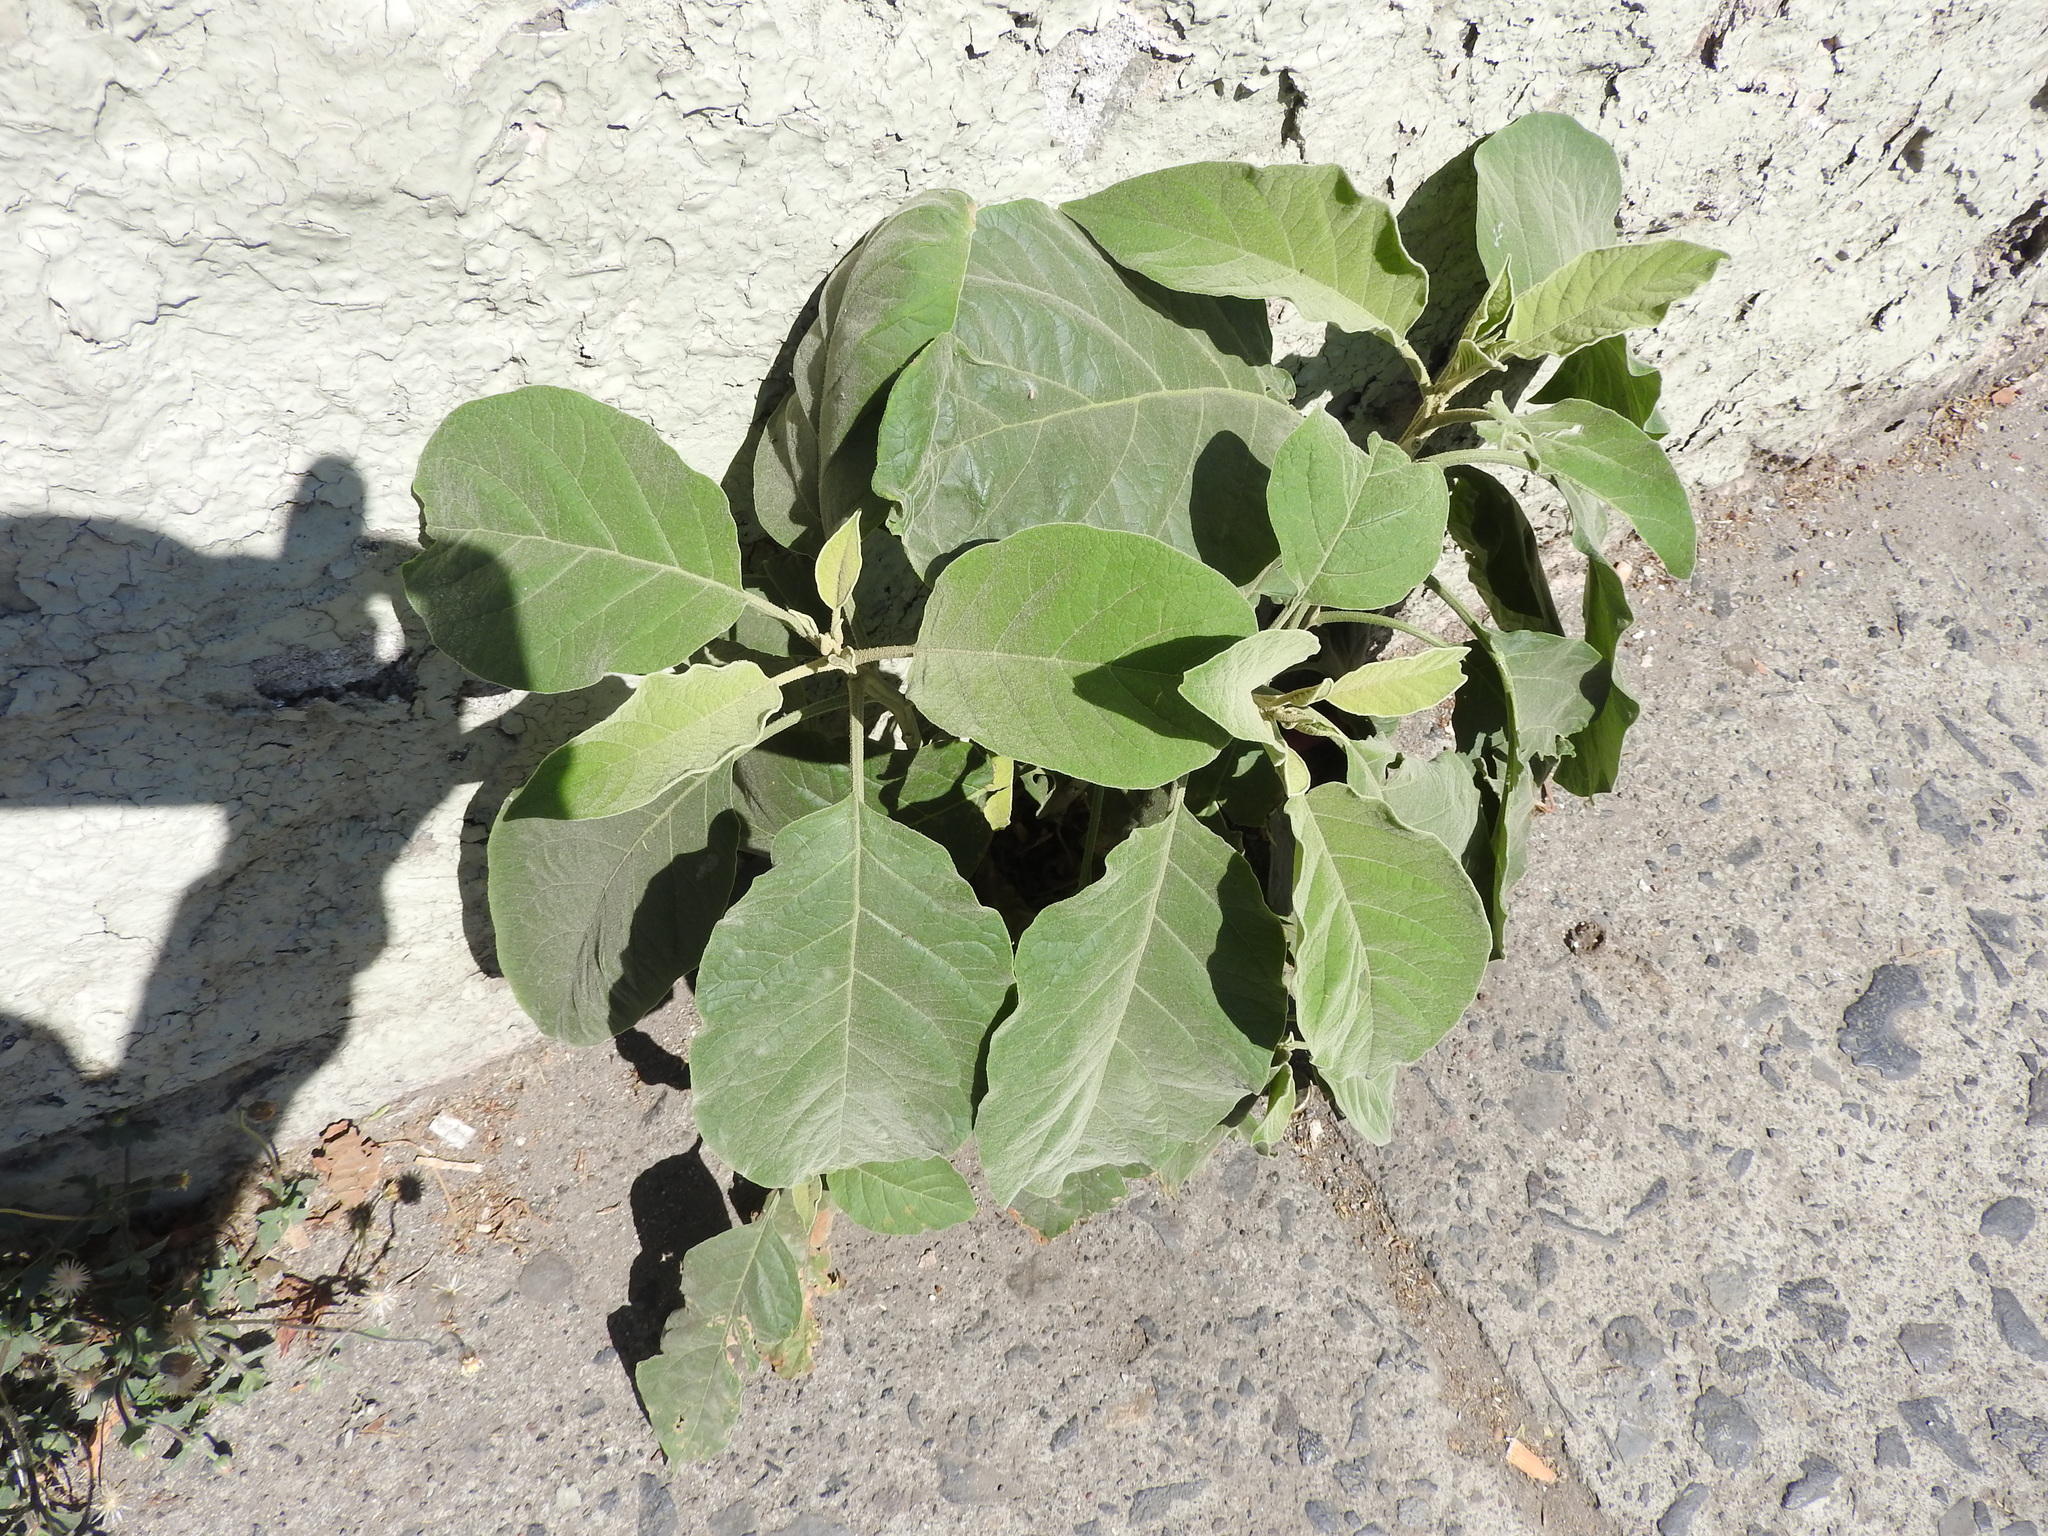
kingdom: Plantae
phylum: Tracheophyta
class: Magnoliopsida
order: Solanales
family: Solanaceae
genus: Solanum
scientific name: Solanum erianthum
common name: Tobacco-tree
